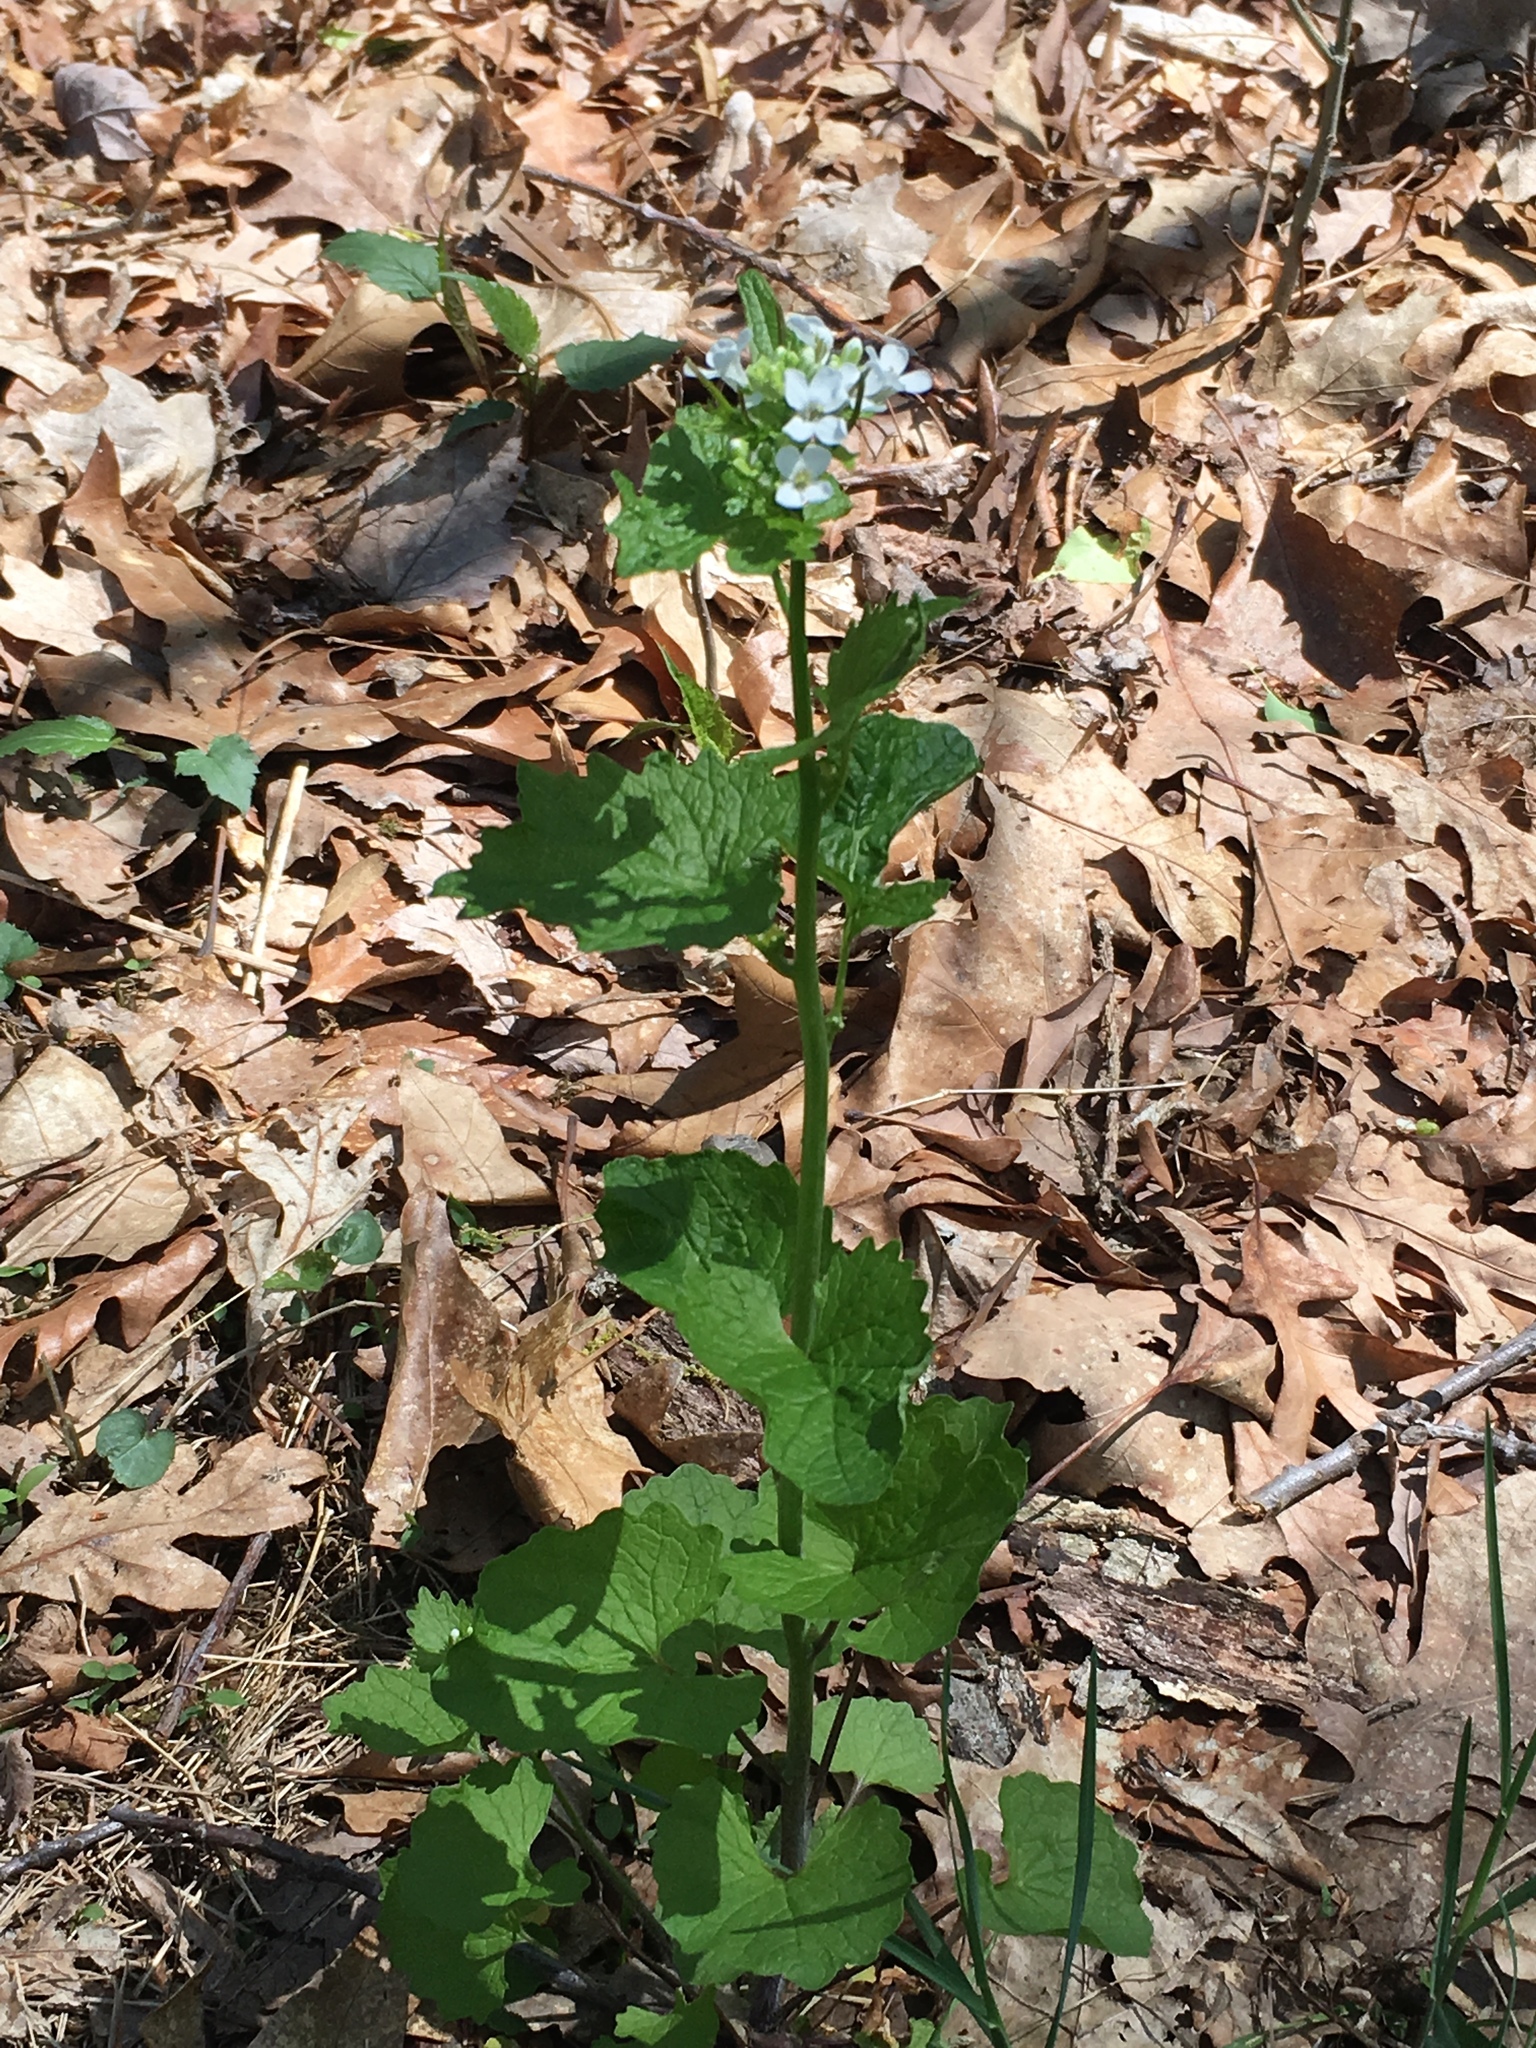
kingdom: Plantae
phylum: Tracheophyta
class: Magnoliopsida
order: Brassicales
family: Brassicaceae
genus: Alliaria
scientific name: Alliaria petiolata
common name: Garlic mustard
